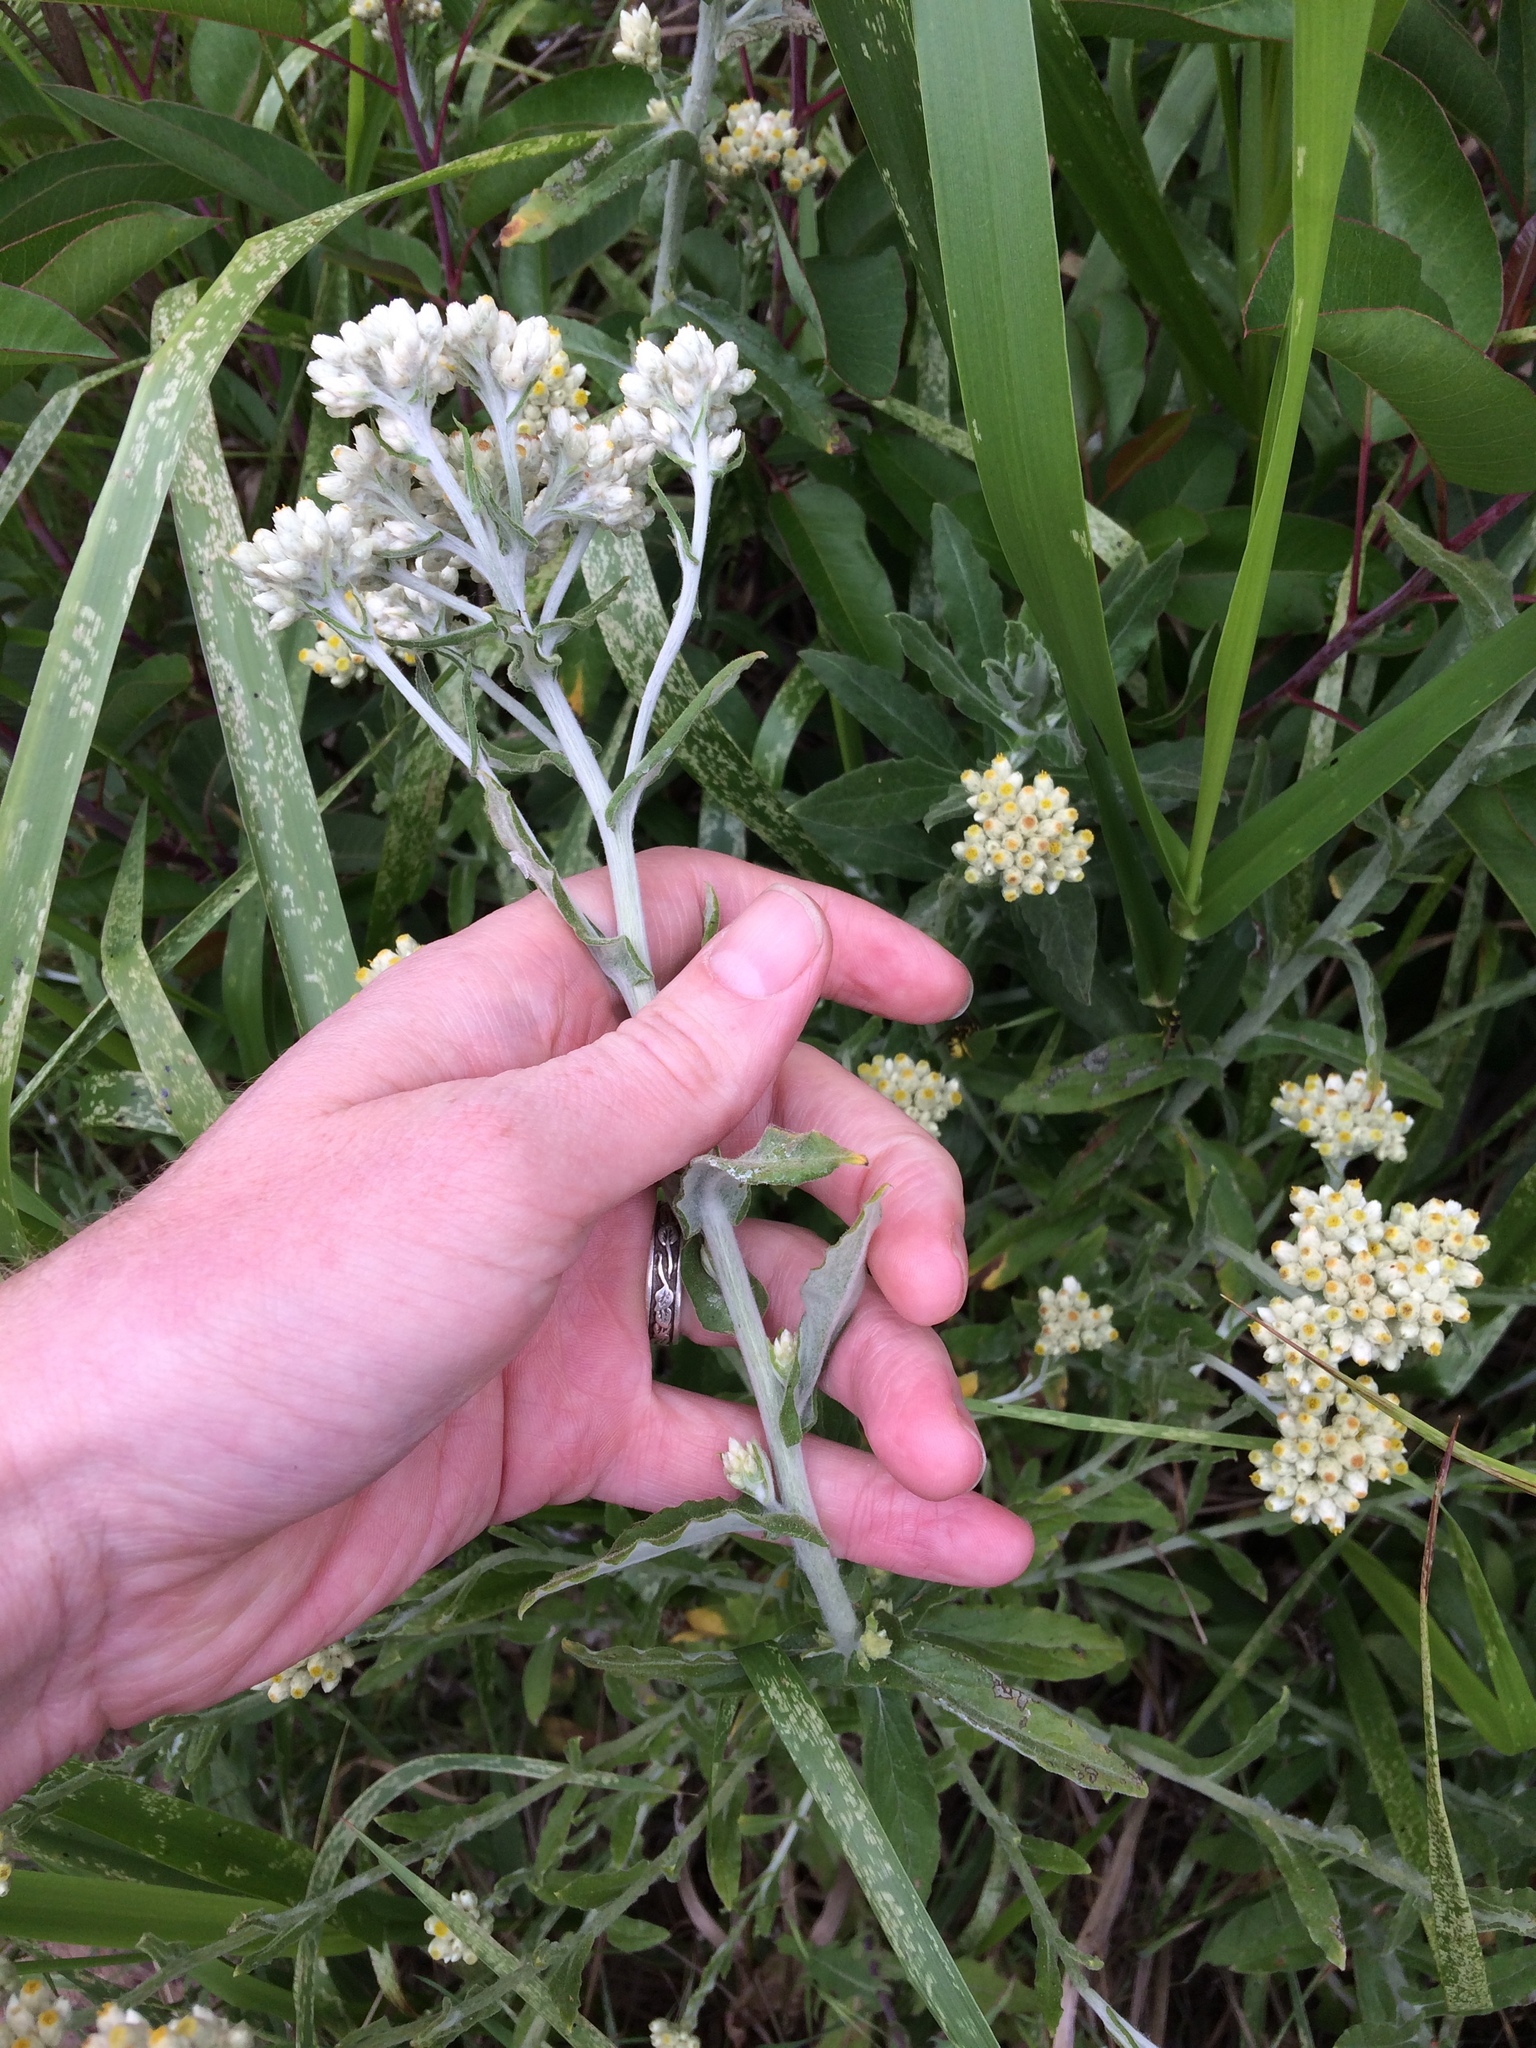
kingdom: Plantae
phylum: Tracheophyta
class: Magnoliopsida
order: Asterales
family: Asteraceae
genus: Pseudognaphalium
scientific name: Pseudognaphalium biolettii
